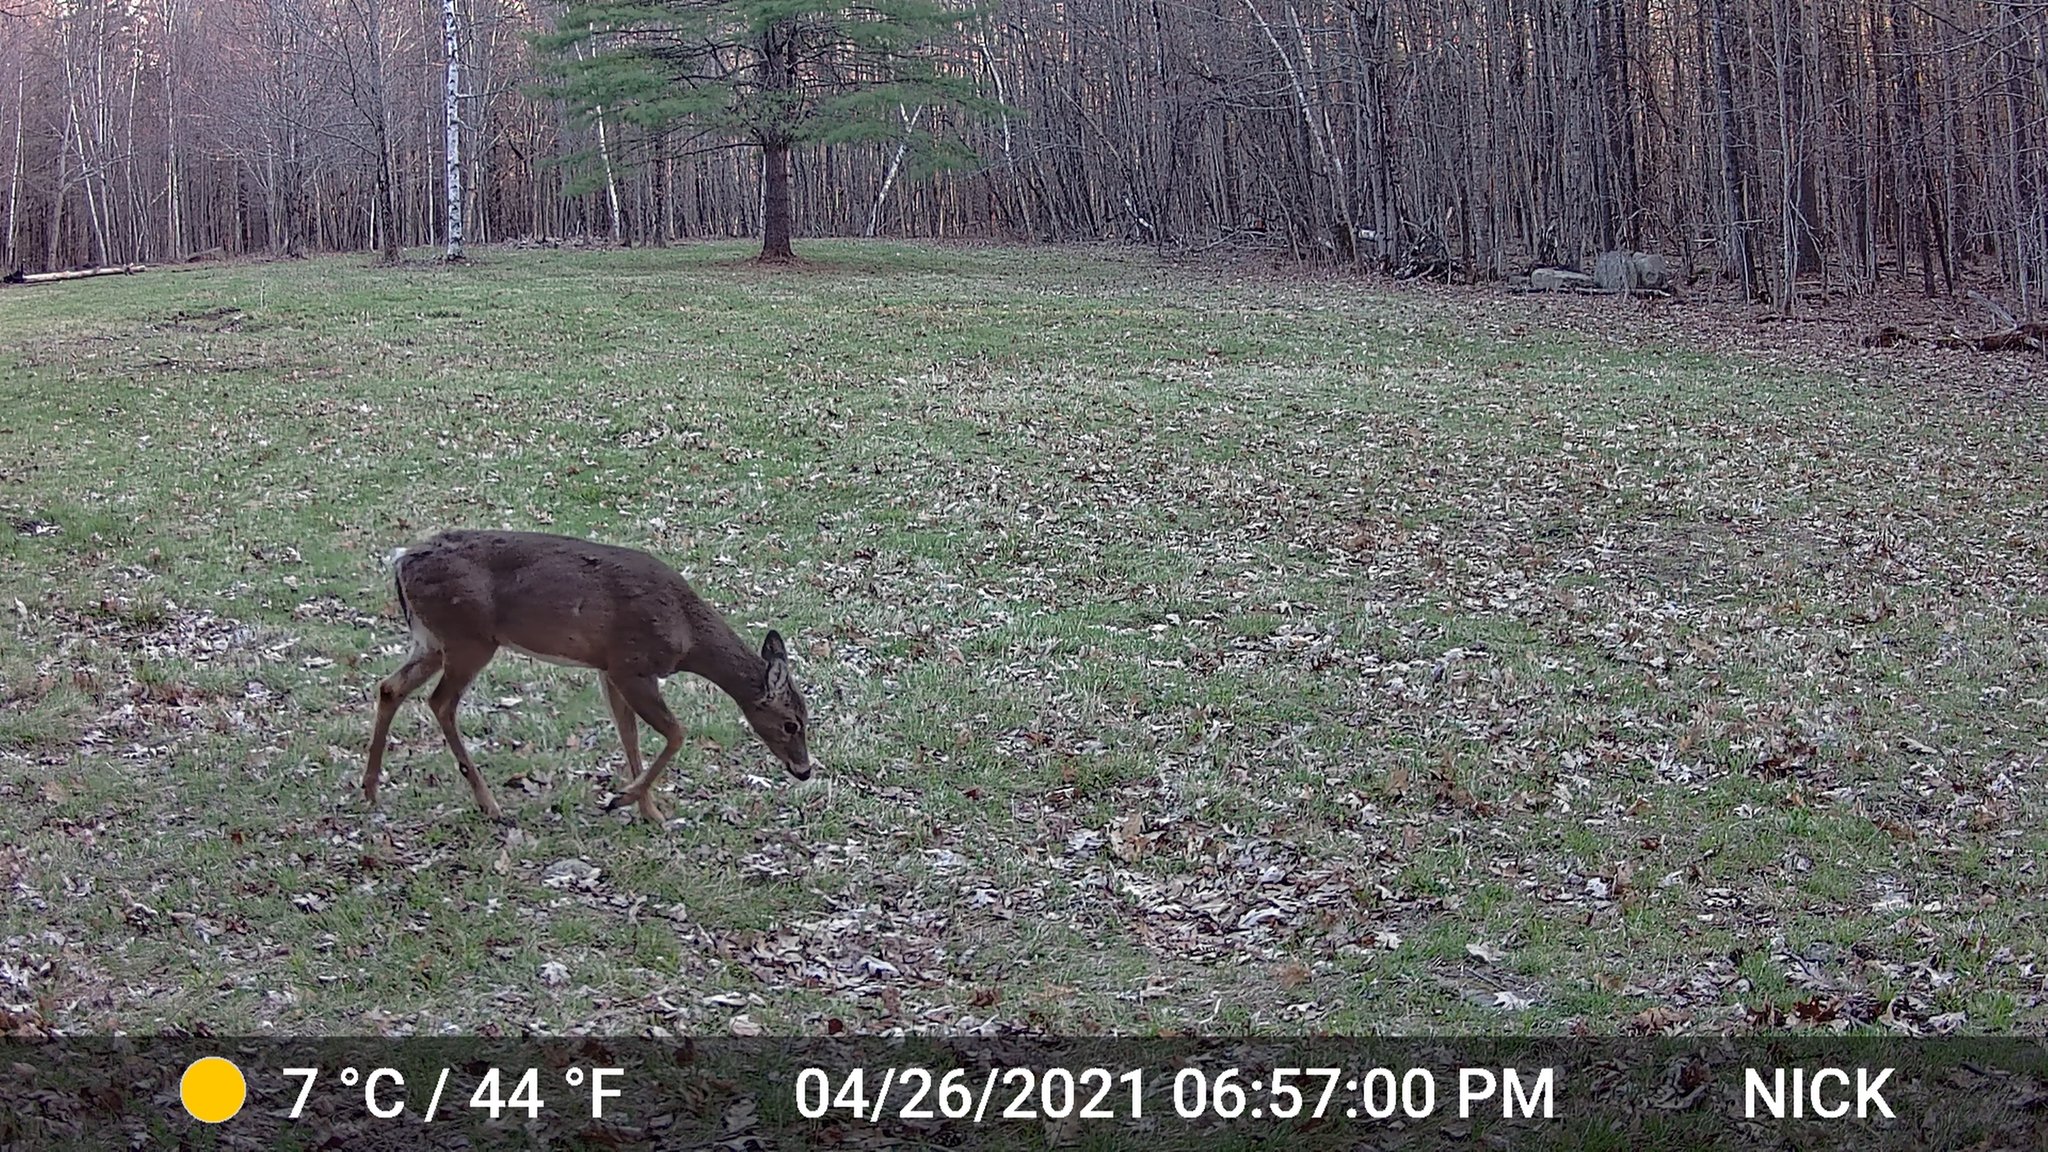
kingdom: Animalia
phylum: Chordata
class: Mammalia
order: Artiodactyla
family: Cervidae
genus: Odocoileus
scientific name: Odocoileus virginianus
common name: White-tailed deer
